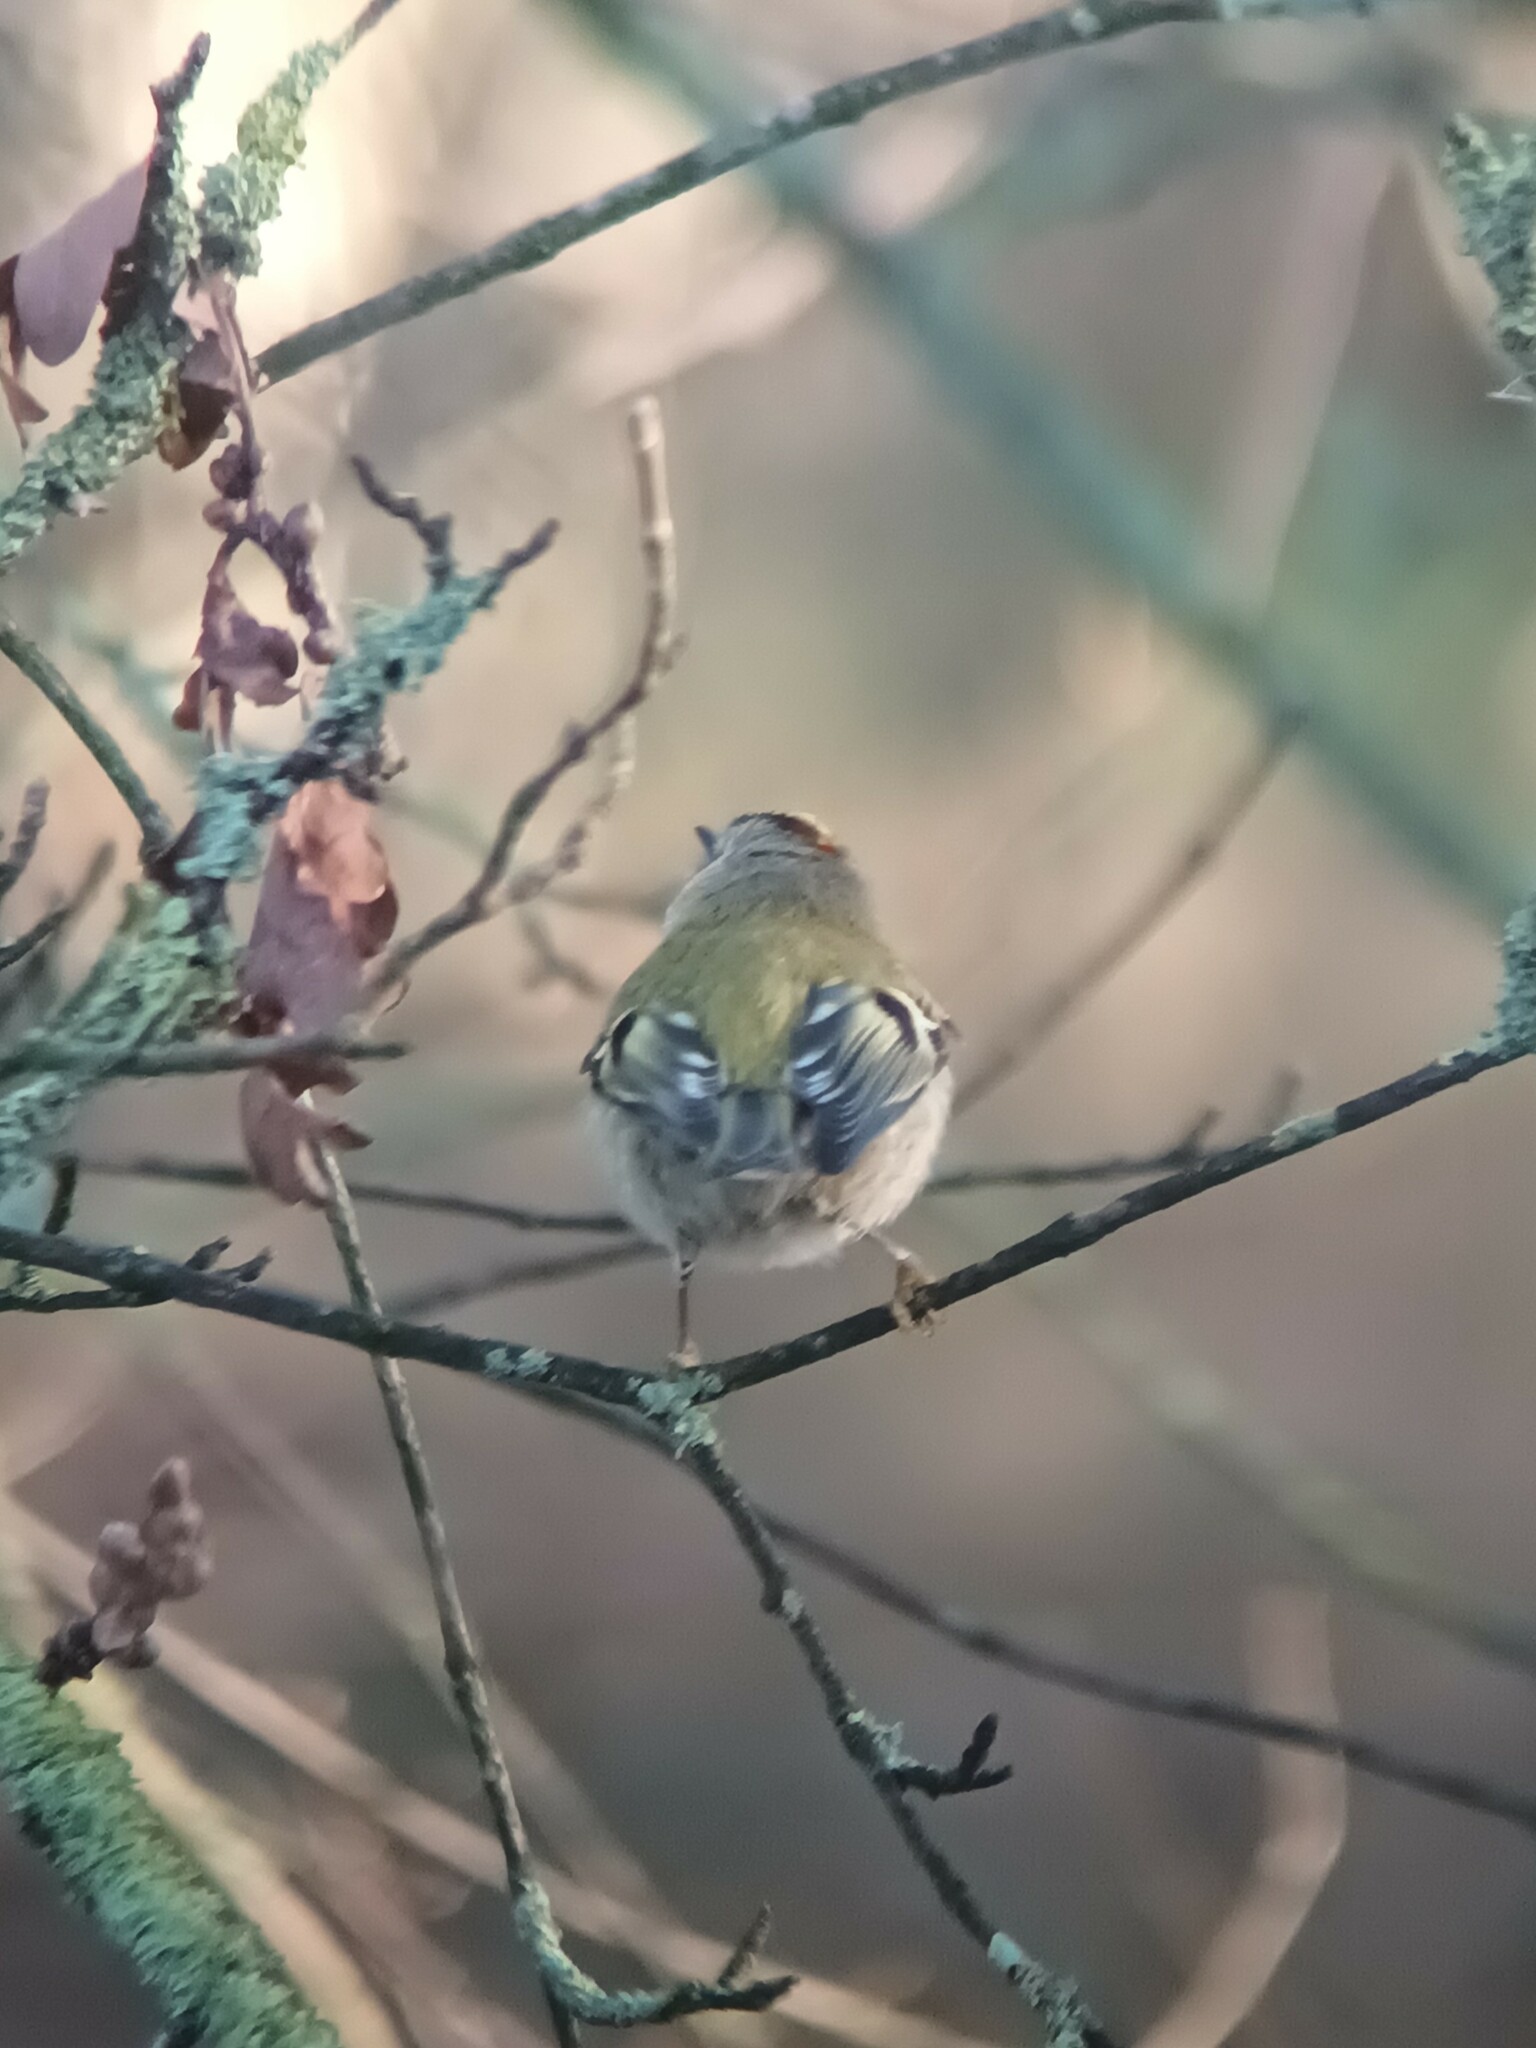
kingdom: Animalia
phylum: Chordata
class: Aves
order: Passeriformes
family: Regulidae
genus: Regulus
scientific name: Regulus regulus
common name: Goldcrest
